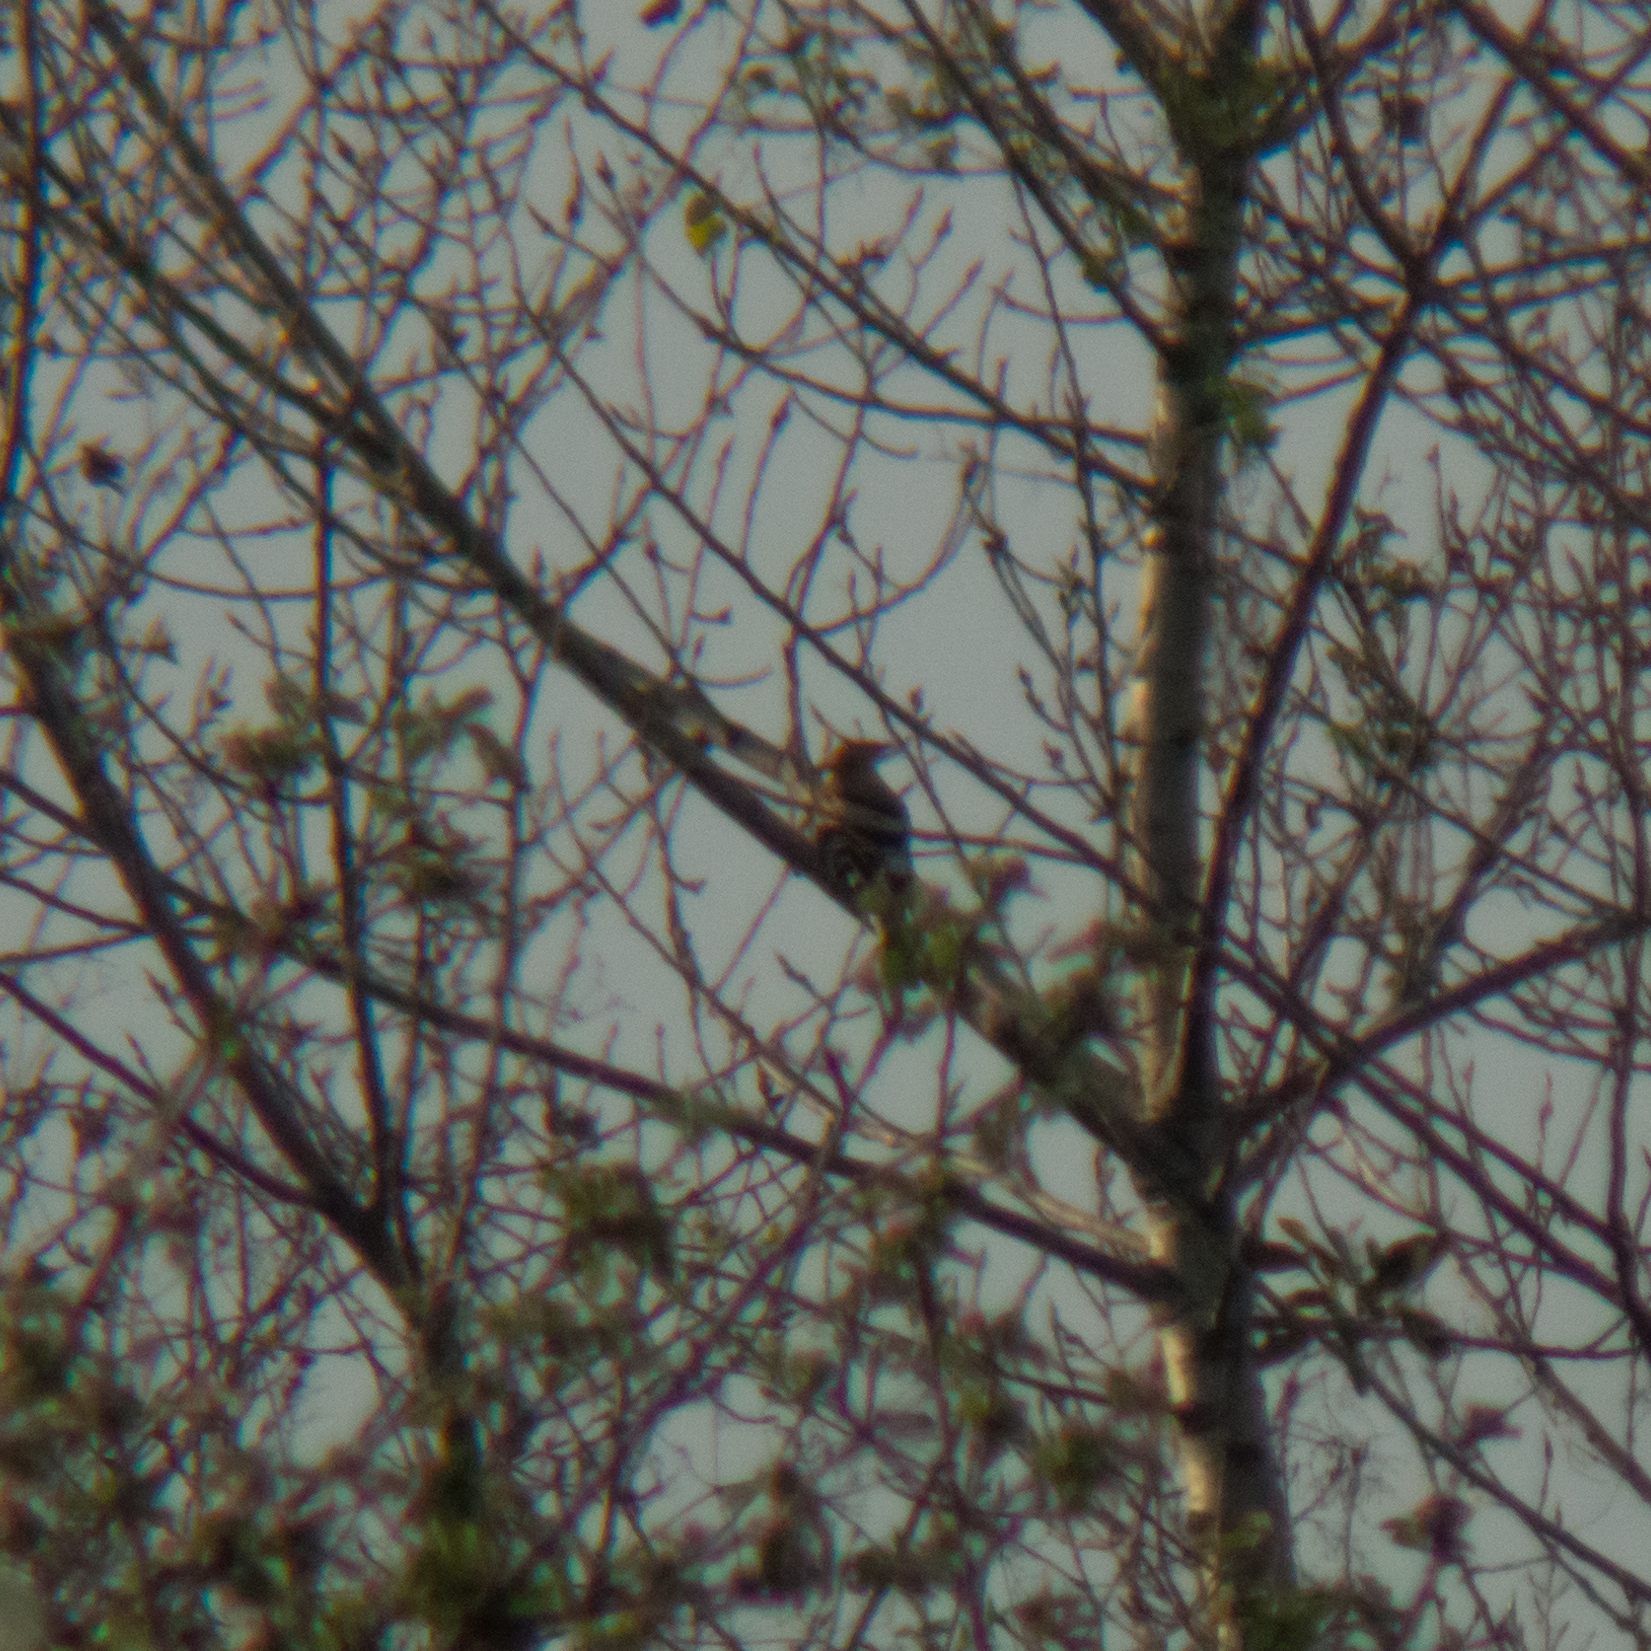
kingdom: Animalia
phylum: Chordata
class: Aves
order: Bucerotiformes
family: Upupidae
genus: Upupa
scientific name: Upupa epops
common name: Eurasian hoopoe
